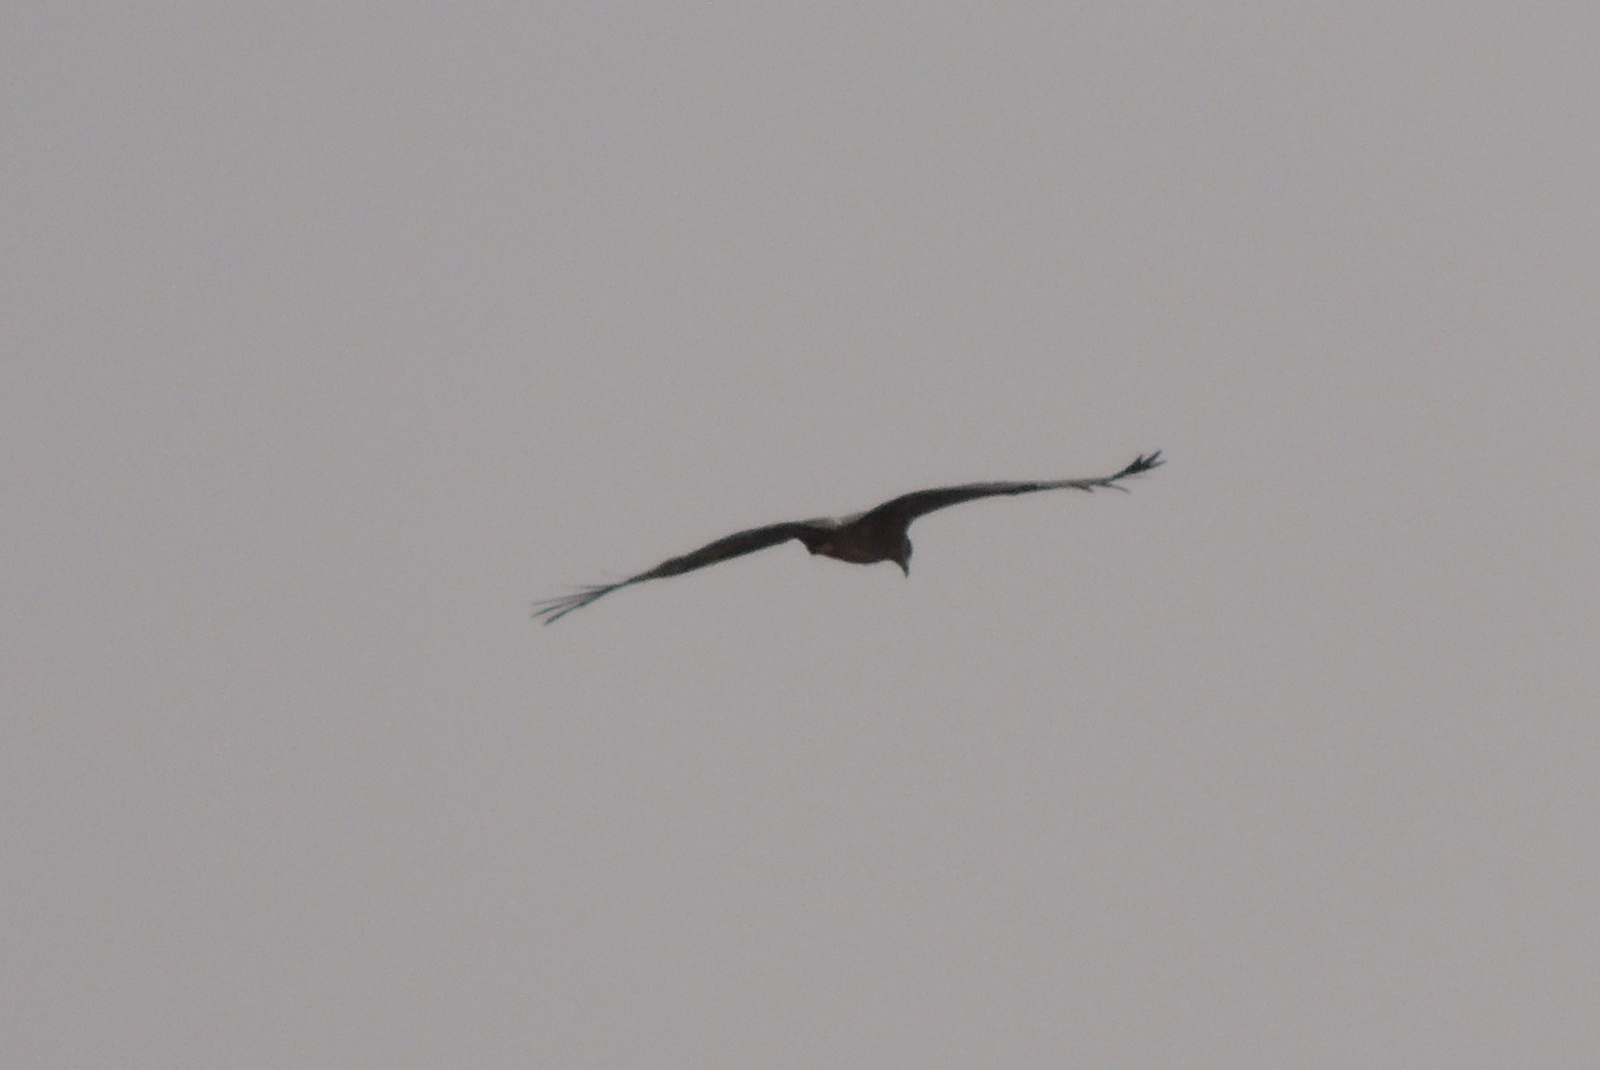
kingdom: Animalia
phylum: Chordata
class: Aves
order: Accipitriformes
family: Accipitridae
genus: Milvus
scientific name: Milvus migrans
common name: Black kite
